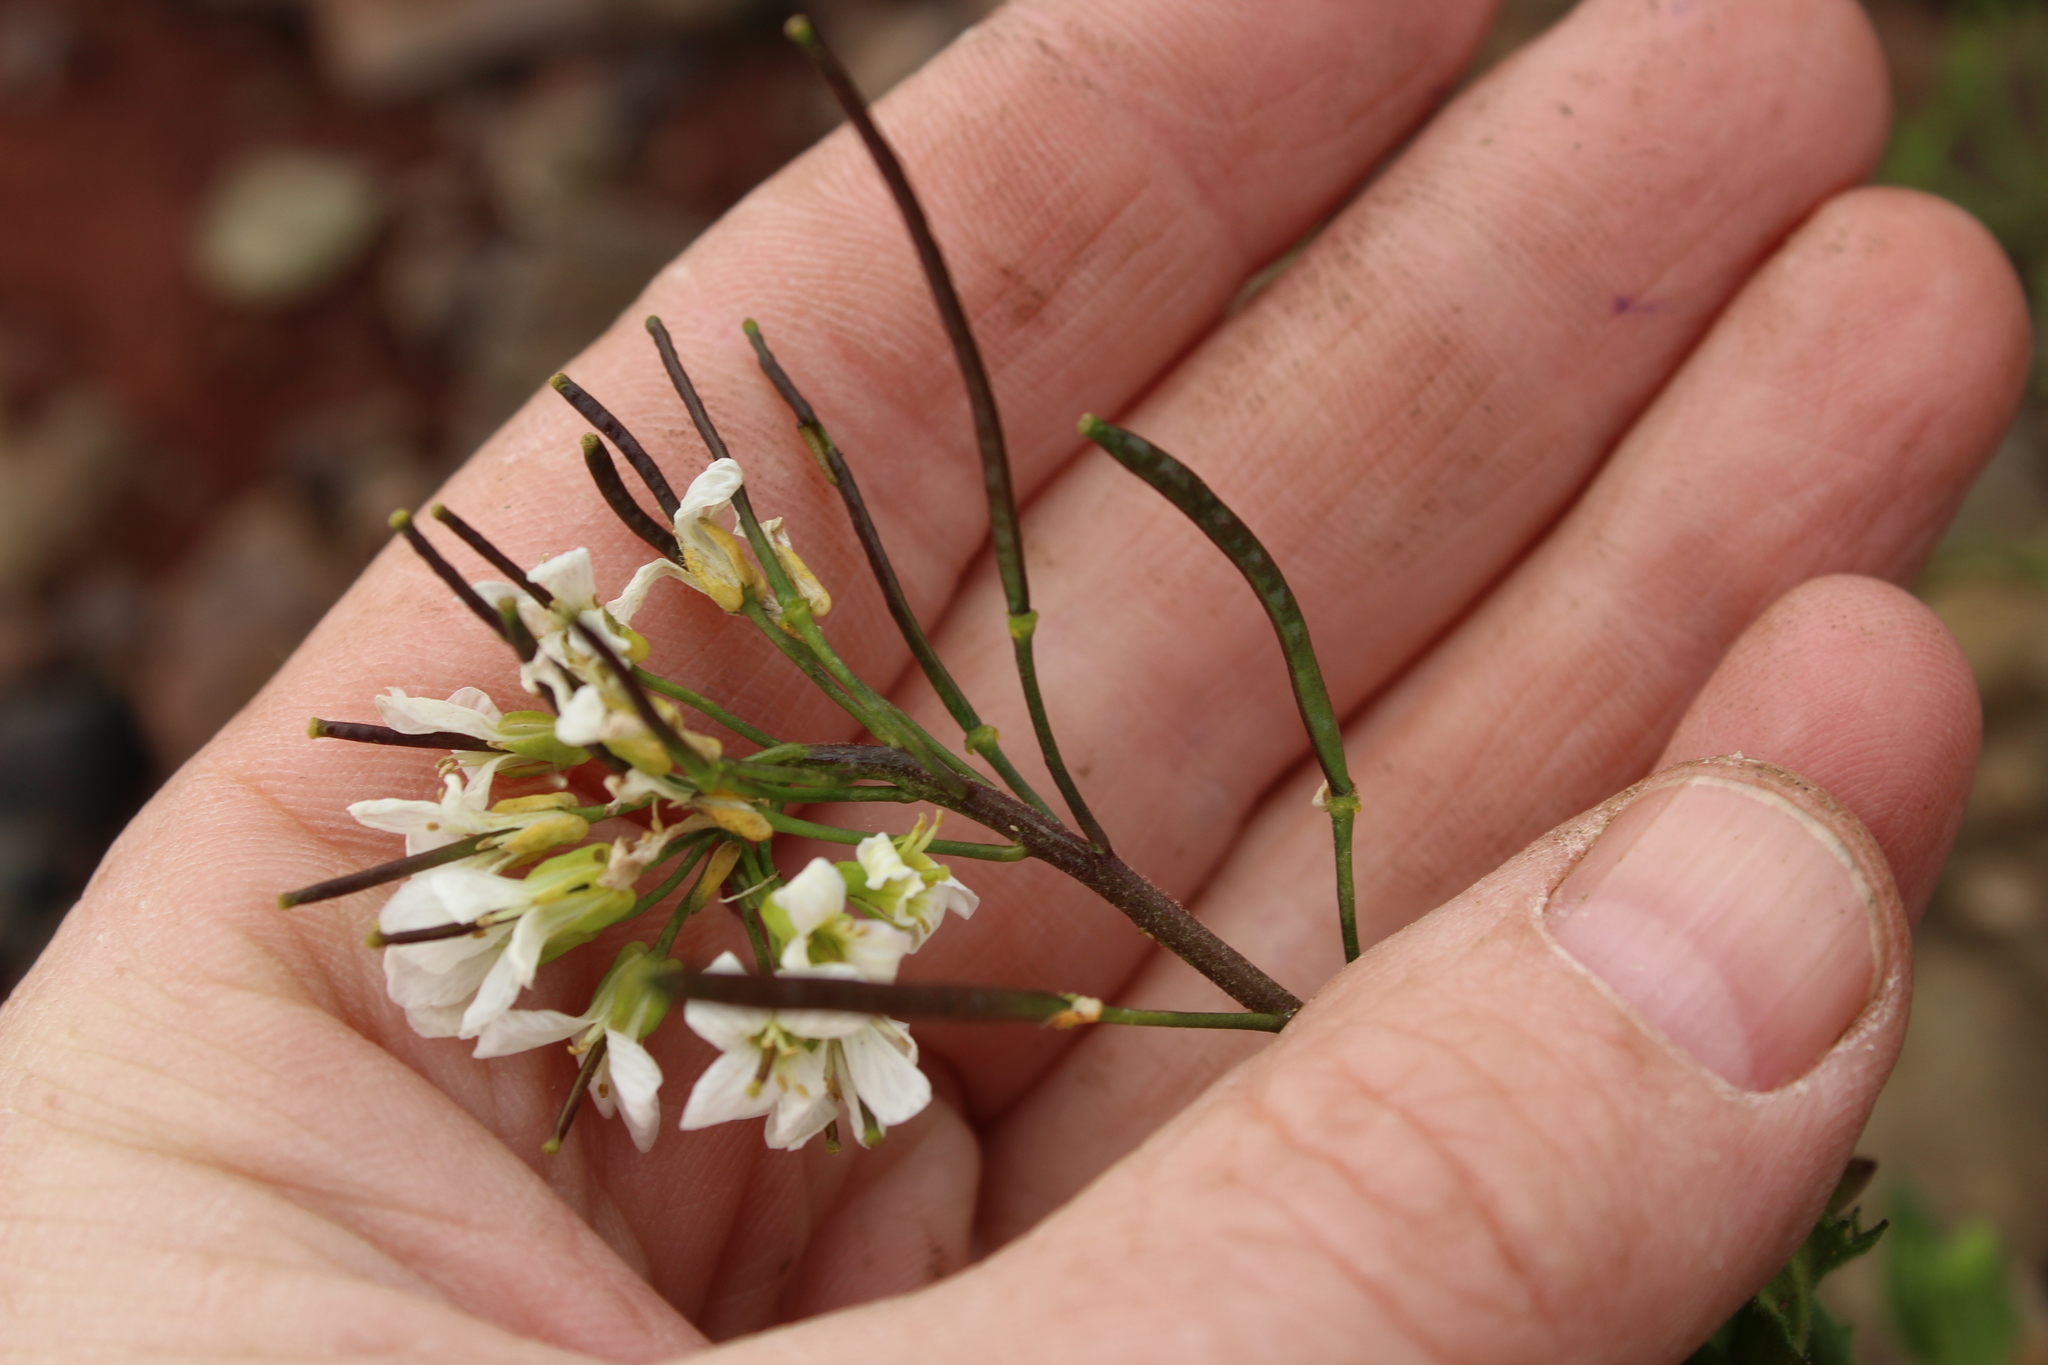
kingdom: Plantae
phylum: Tracheophyta
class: Magnoliopsida
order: Brassicales
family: Brassicaceae
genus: Arabis
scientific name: Arabis alpina
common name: Alpine rock-cress
